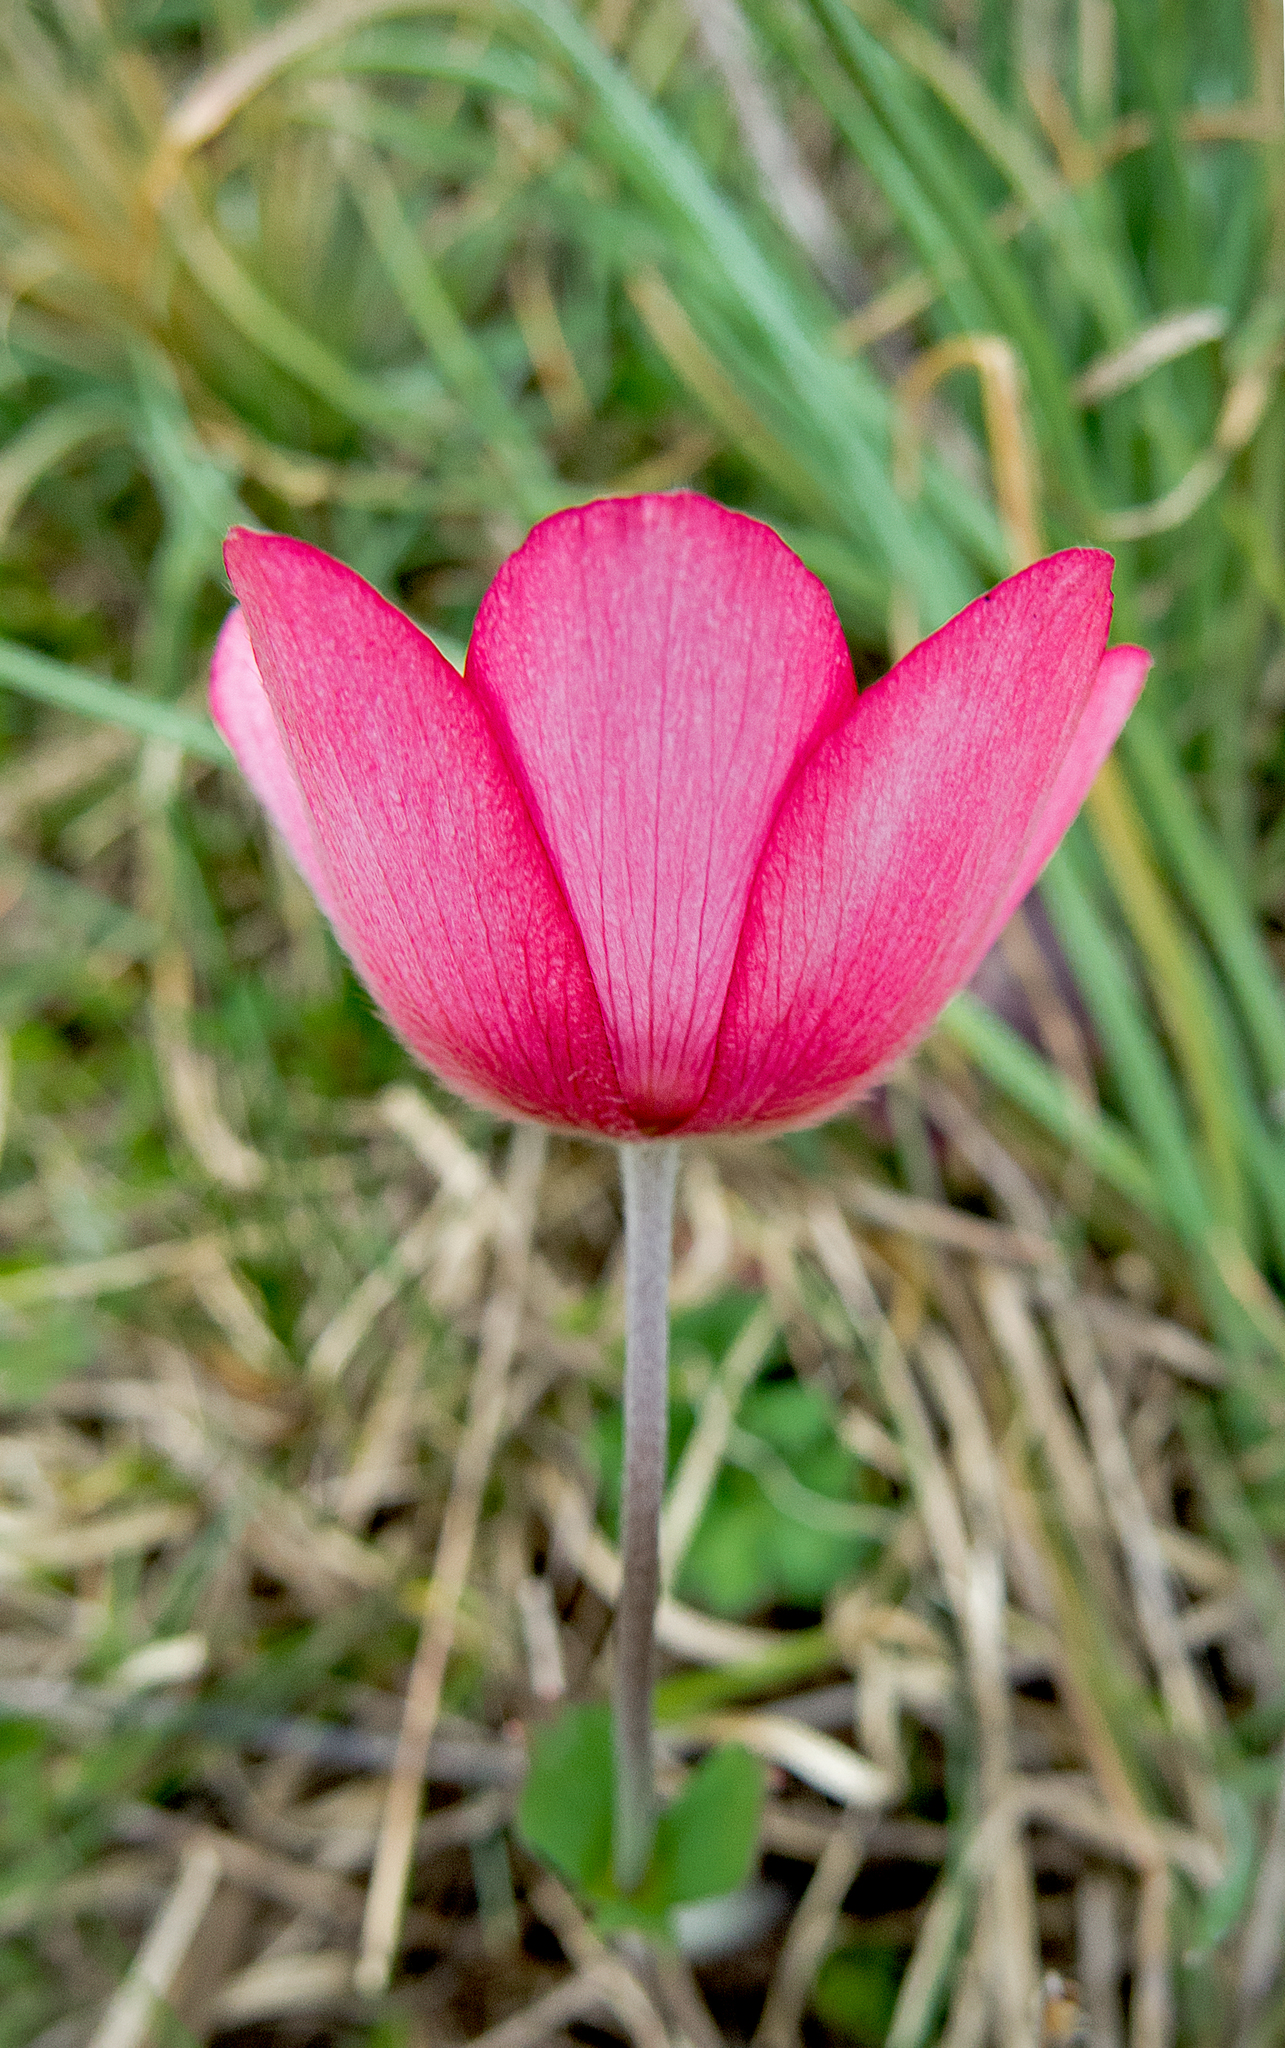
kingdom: Plantae
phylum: Tracheophyta
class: Magnoliopsida
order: Ranunculales
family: Ranunculaceae
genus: Anemone
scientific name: Anemone pavonina
